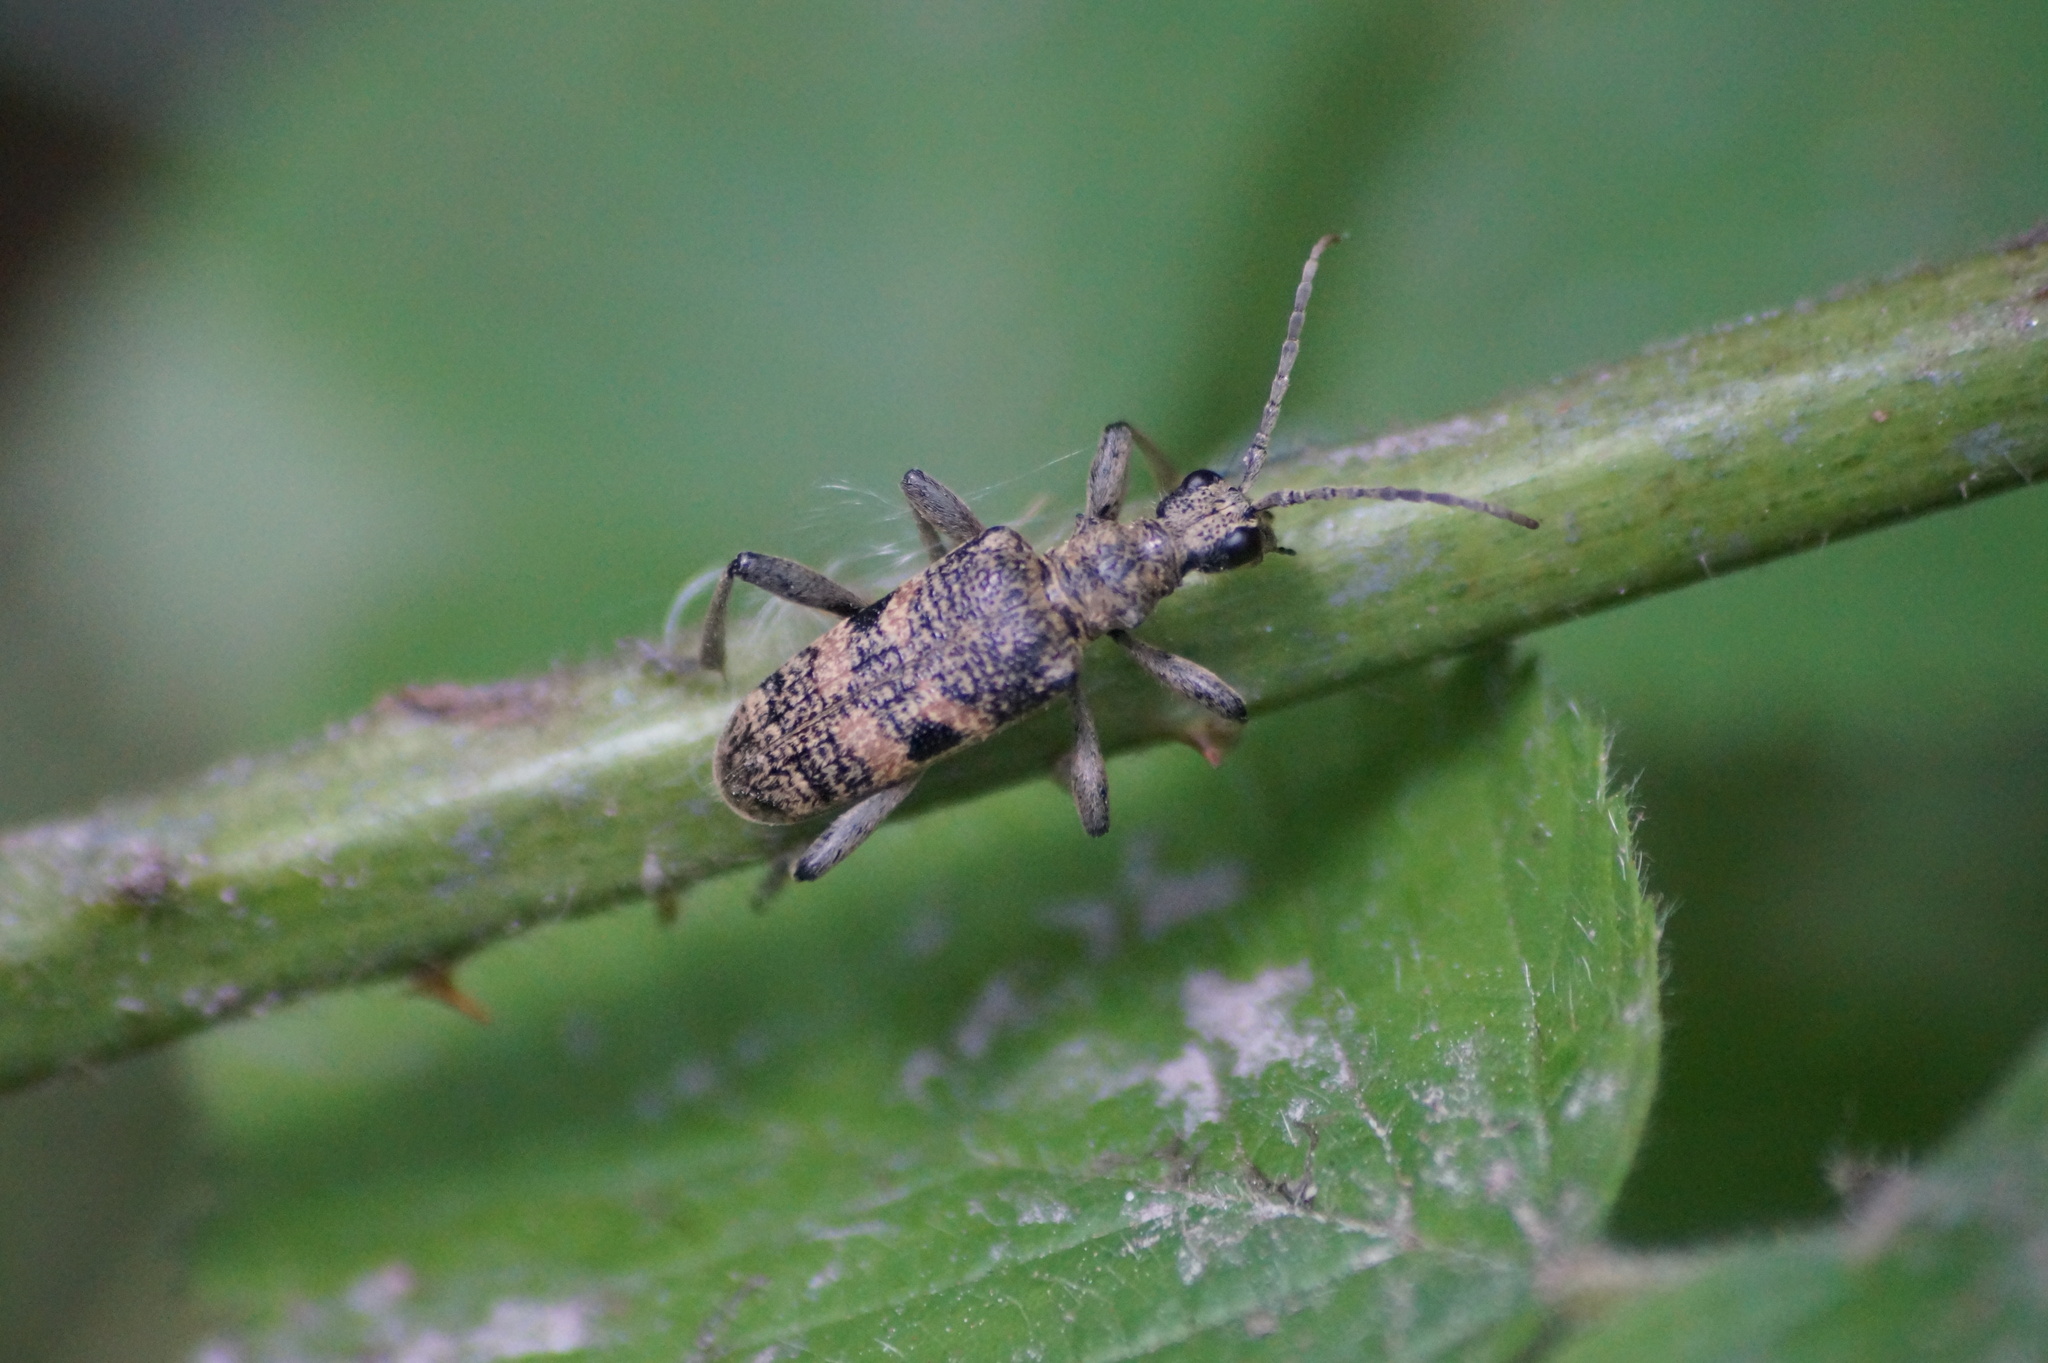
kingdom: Animalia
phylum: Arthropoda
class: Insecta
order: Coleoptera
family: Cerambycidae
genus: Rhagium
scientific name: Rhagium mordax
